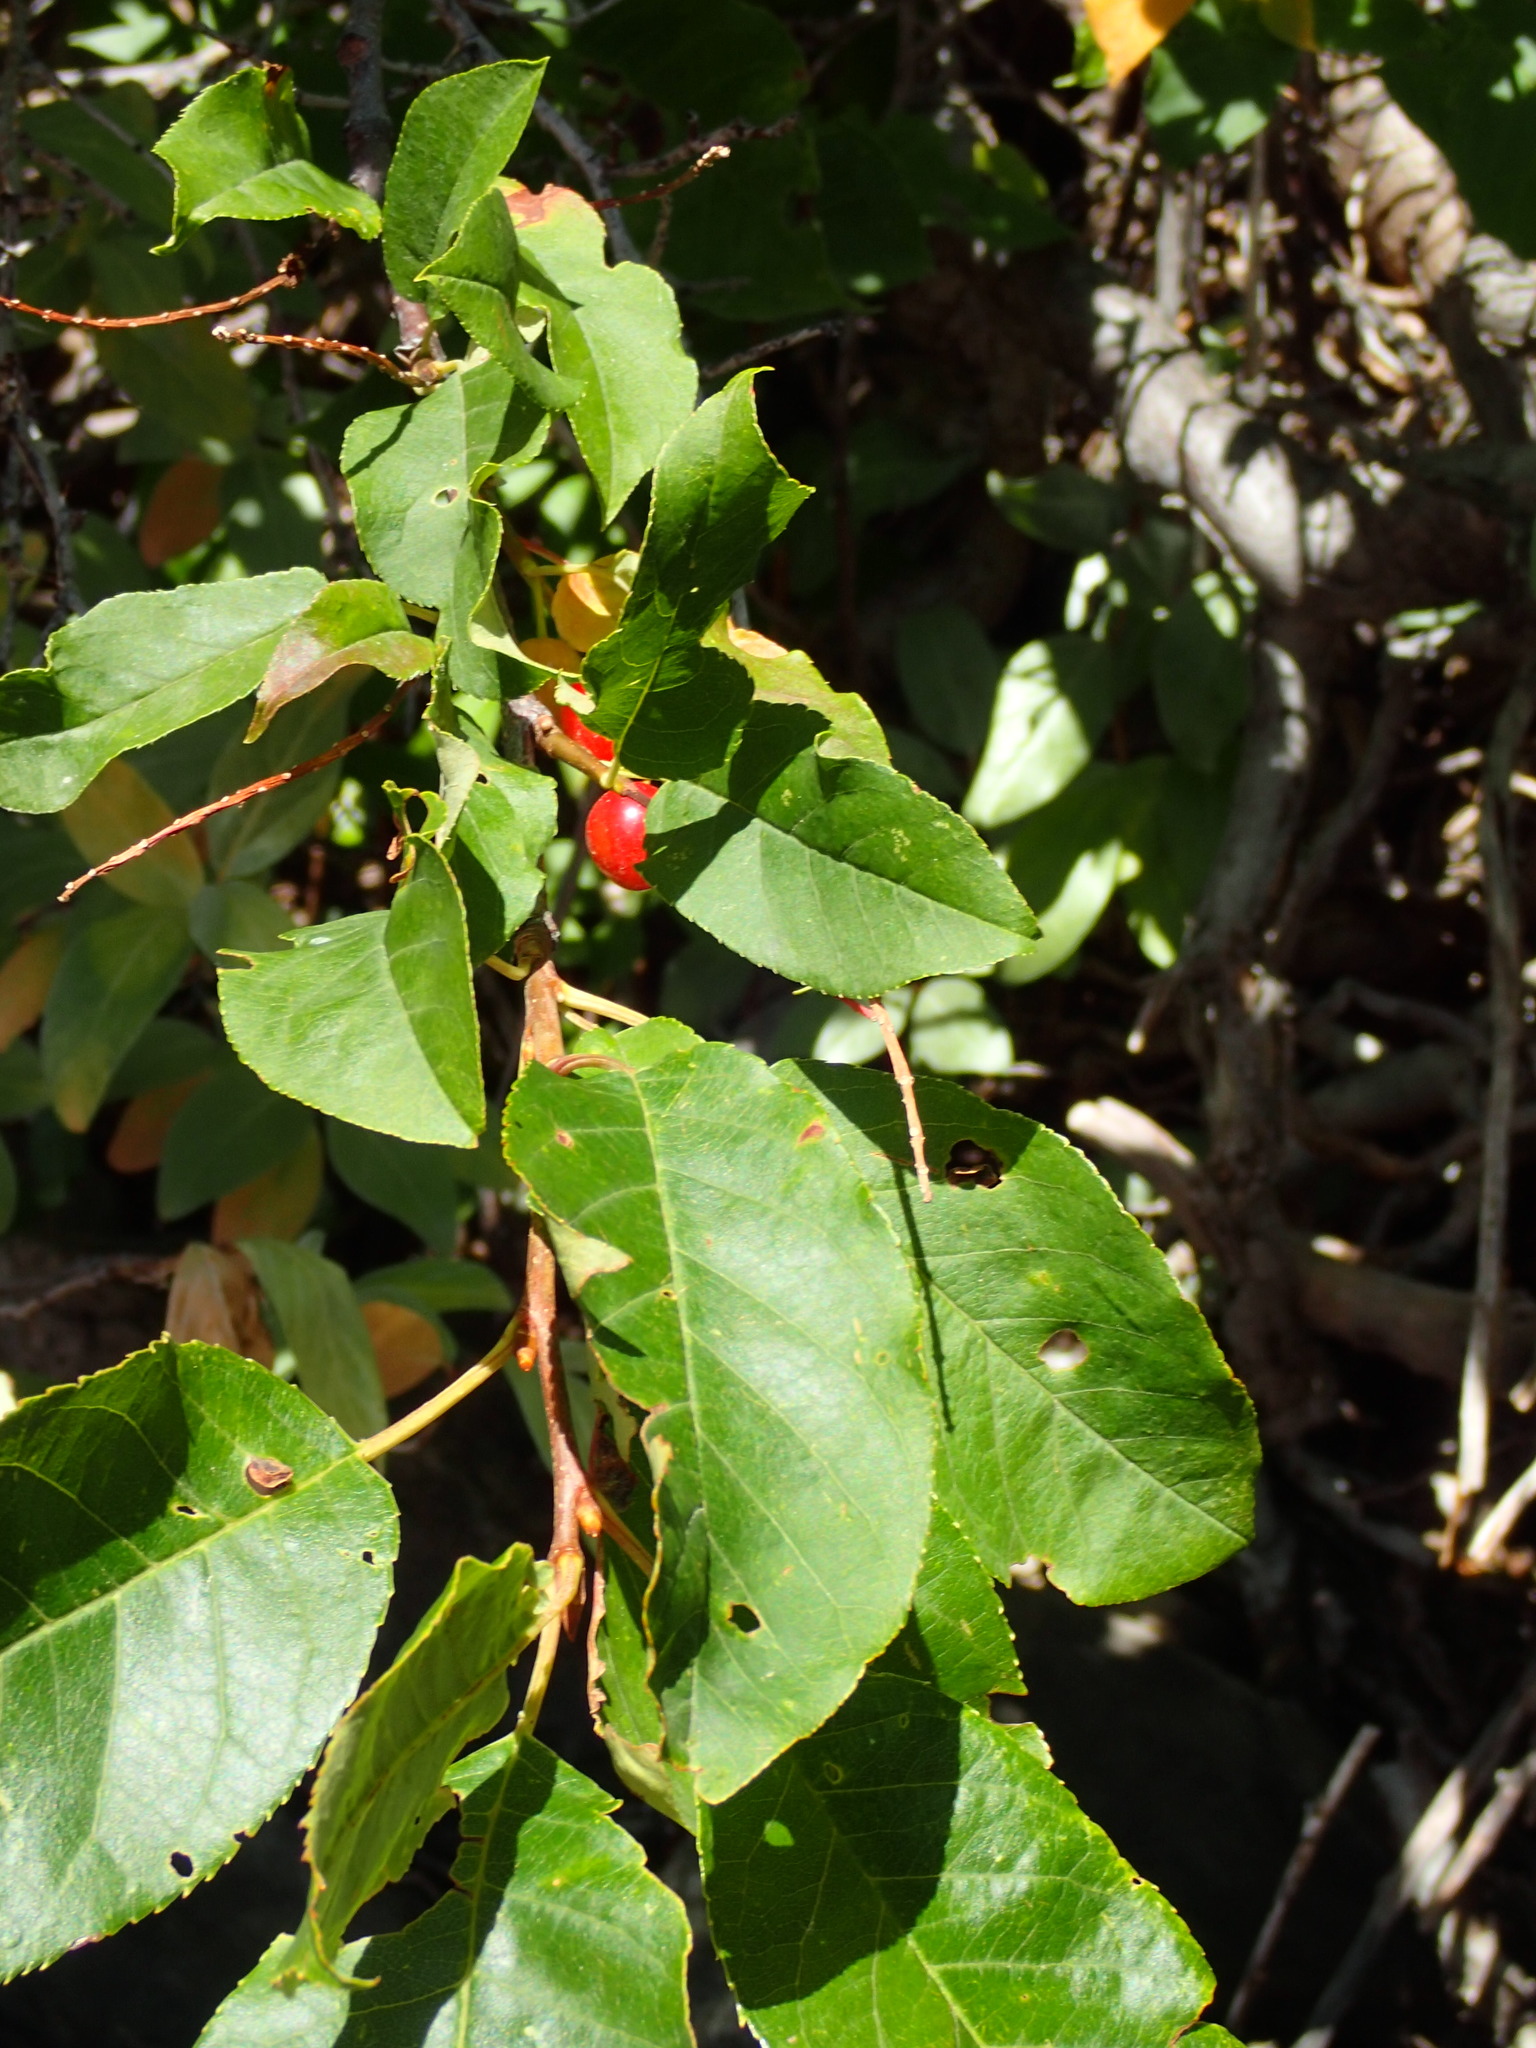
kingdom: Plantae
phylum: Tracheophyta
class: Magnoliopsida
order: Rosales
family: Rosaceae
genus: Prunus
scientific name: Prunus virginiana
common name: Chokecherry
